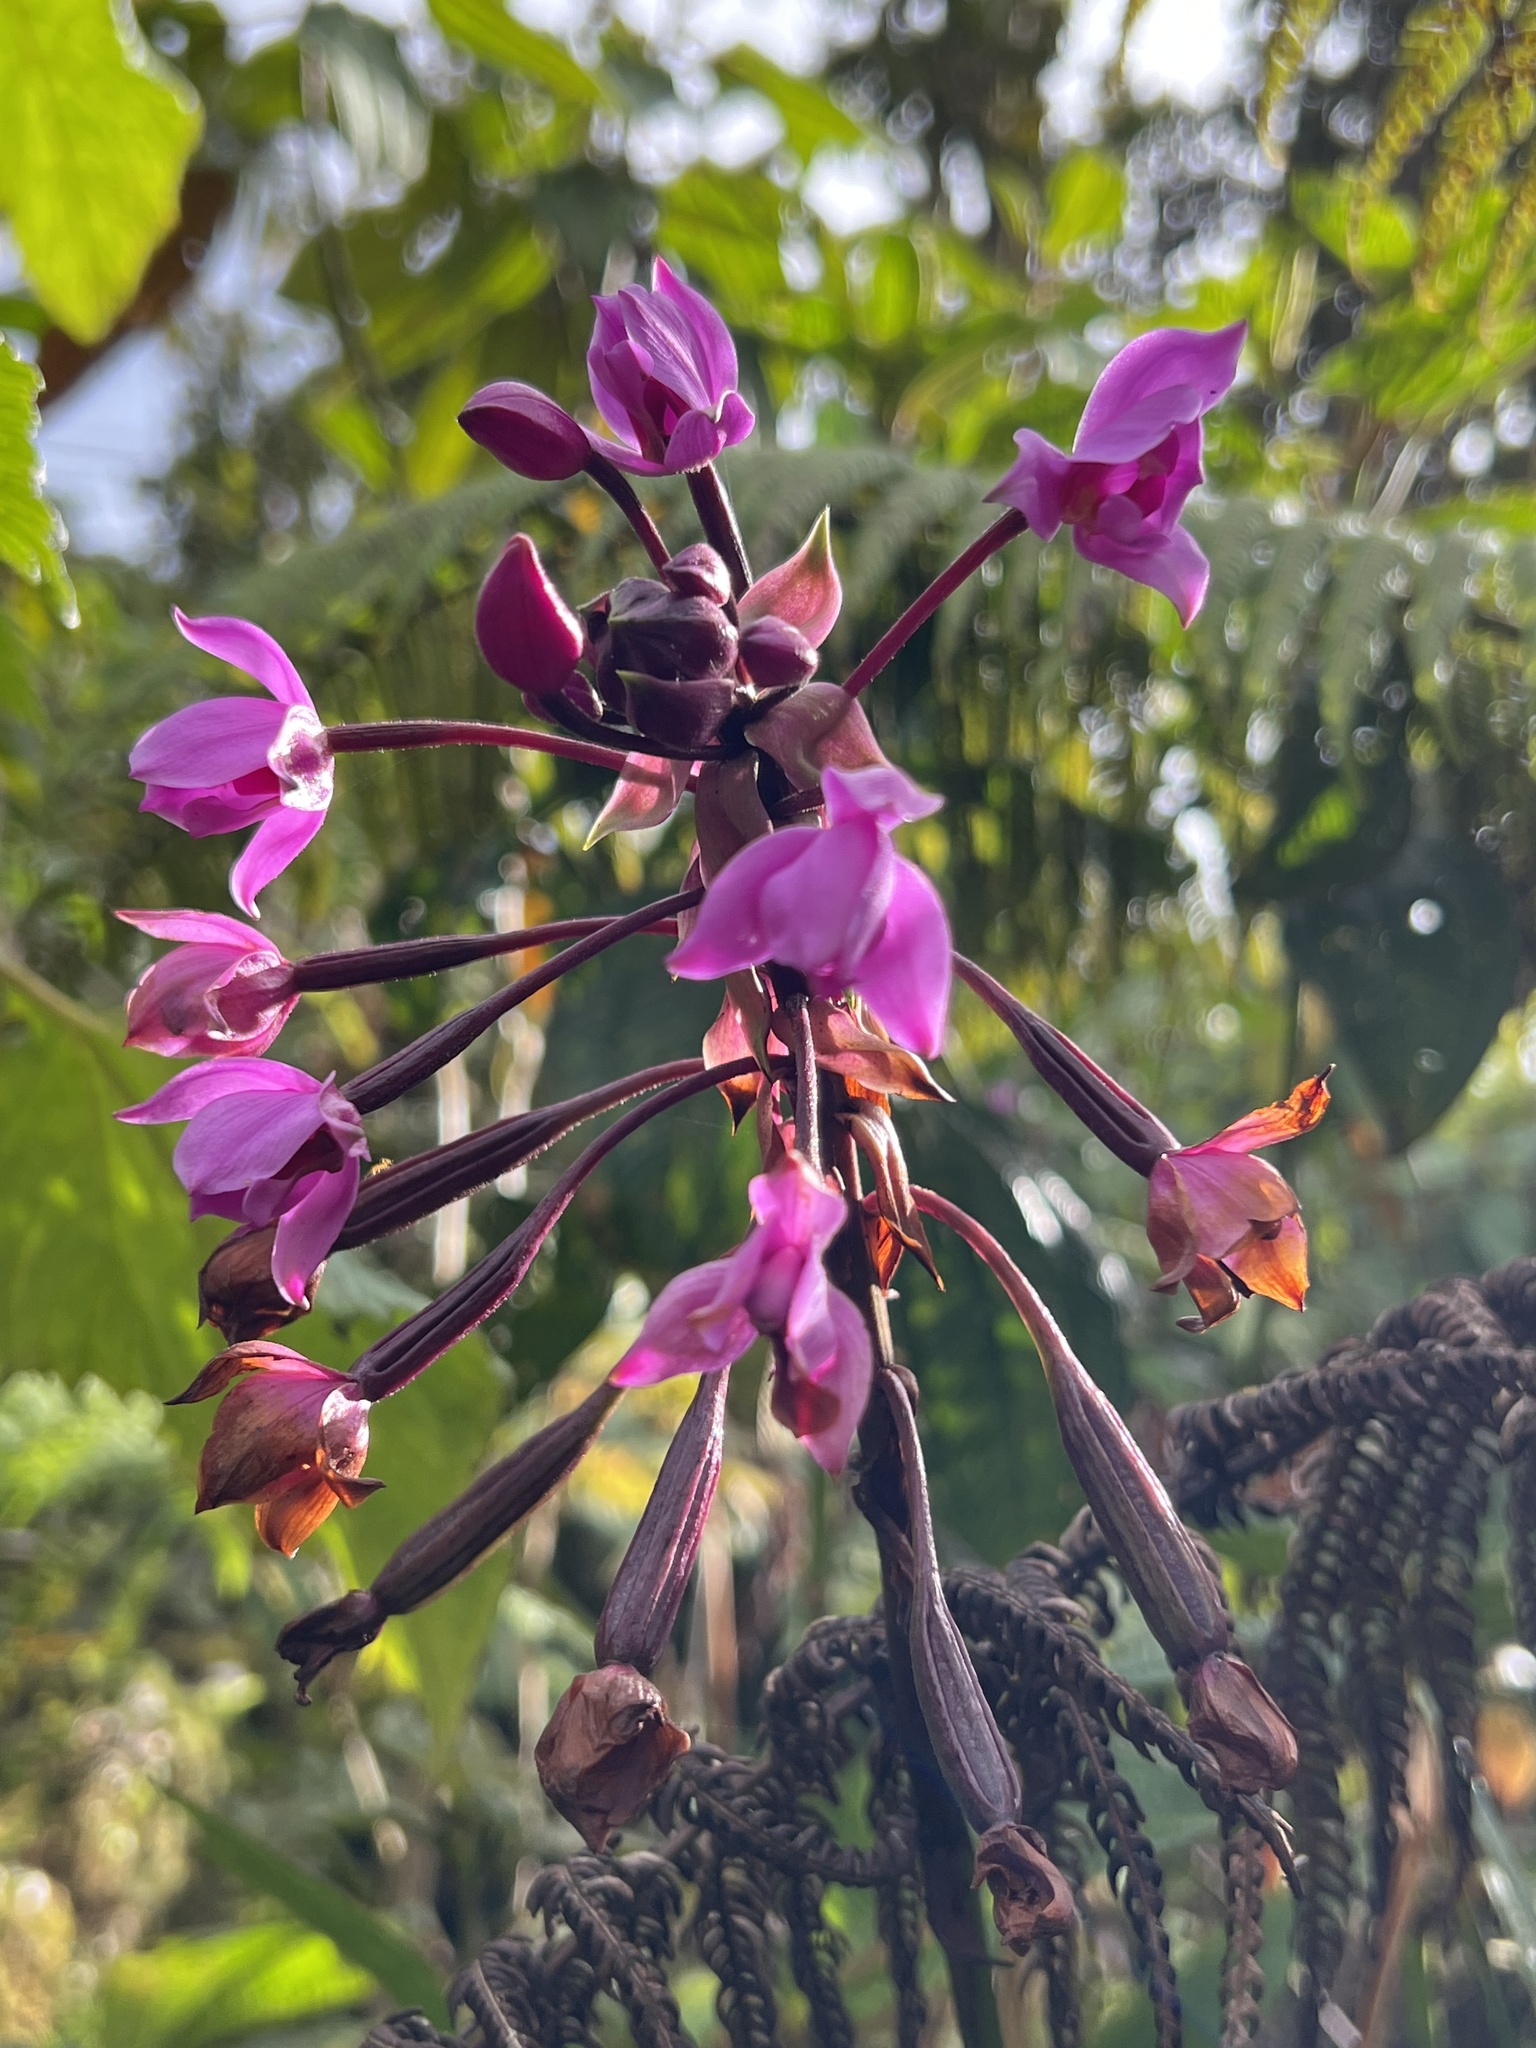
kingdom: Plantae
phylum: Tracheophyta
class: Liliopsida
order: Asparagales
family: Orchidaceae
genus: Spathoglottis
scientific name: Spathoglottis plicata
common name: Philippine ground orchid
